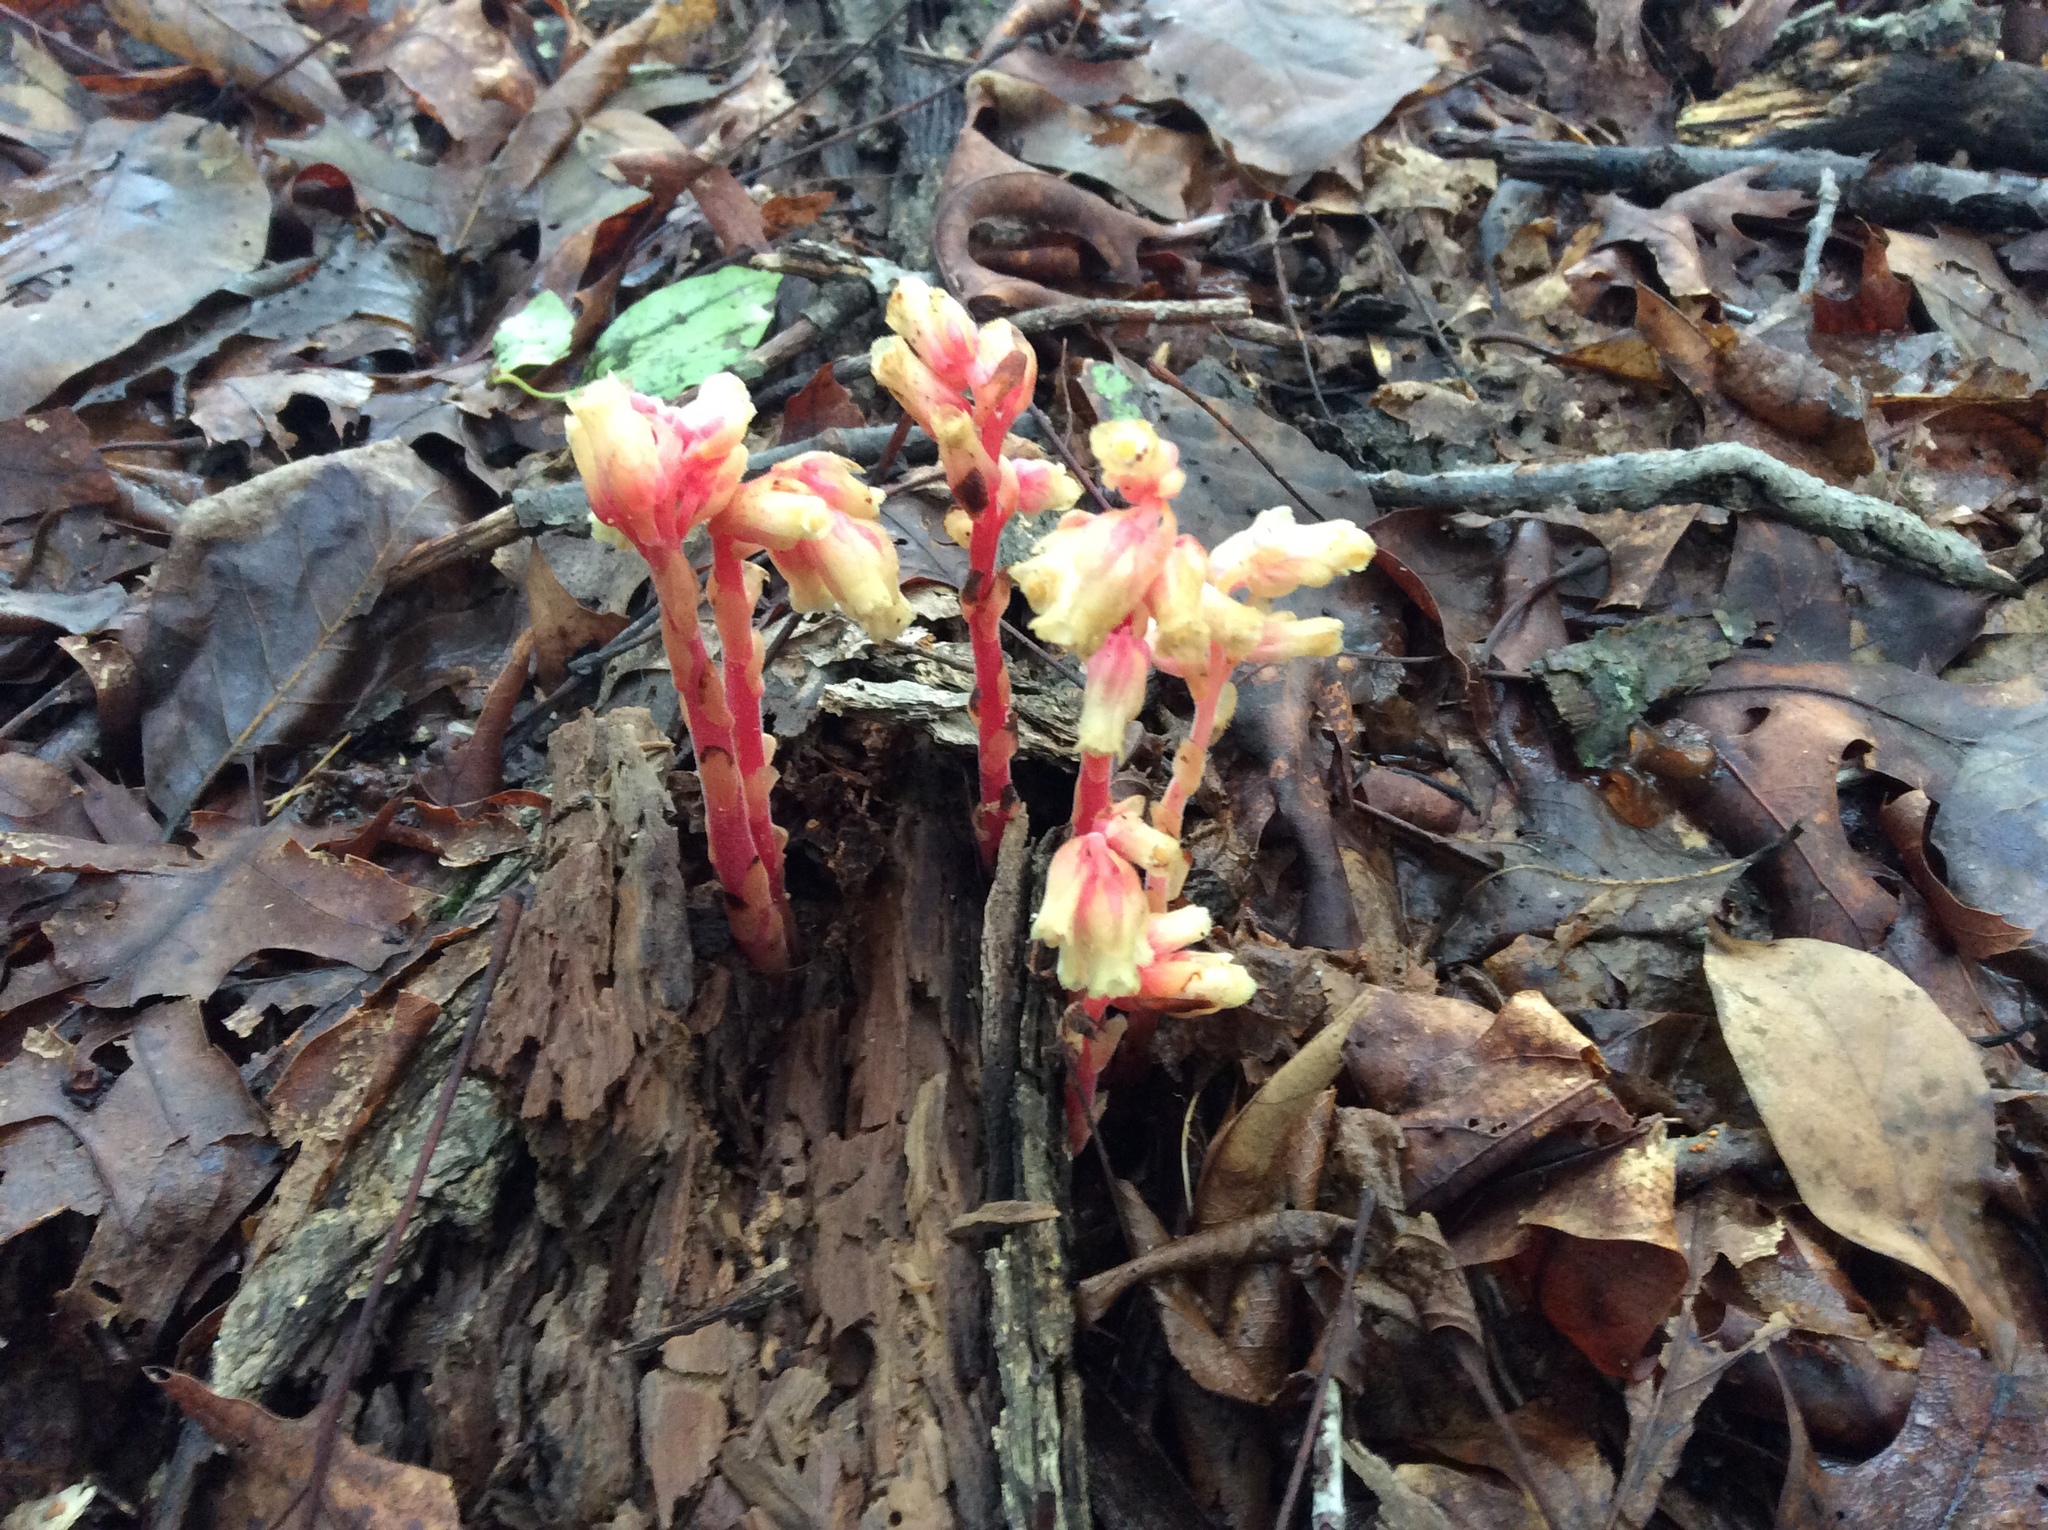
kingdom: Plantae
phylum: Tracheophyta
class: Magnoliopsida
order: Ericales
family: Ericaceae
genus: Hypopitys
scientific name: Hypopitys monotropa
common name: Yellow bird's-nest
